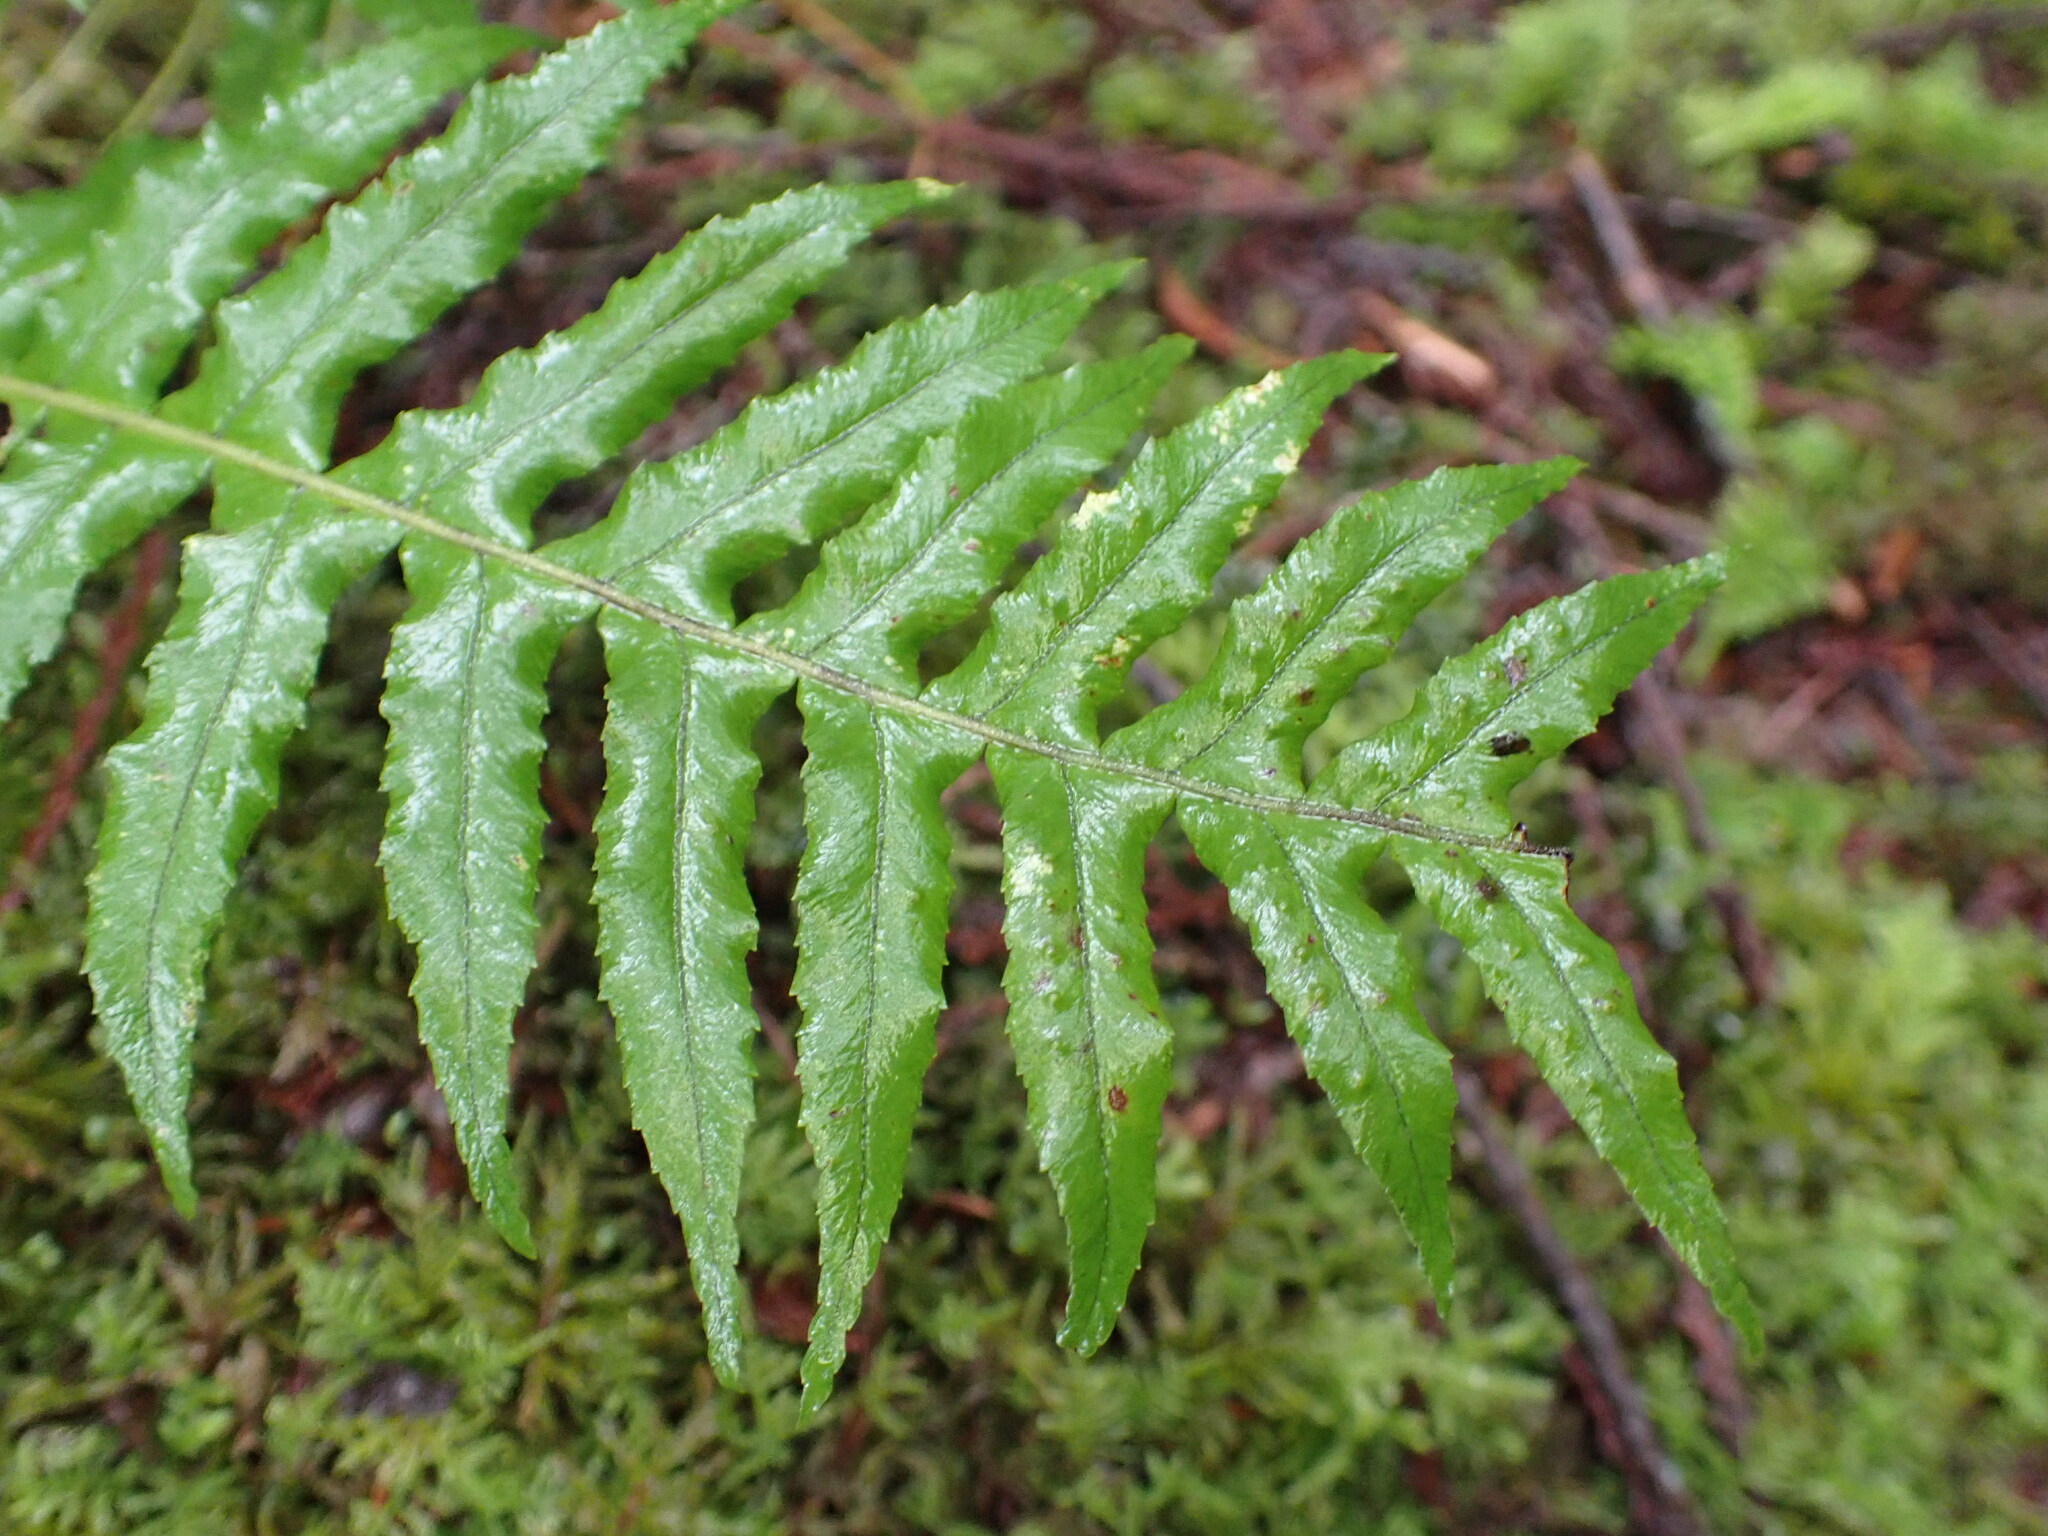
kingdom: Plantae
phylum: Tracheophyta
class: Polypodiopsida
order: Polypodiales
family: Polypodiaceae
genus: Polypodium
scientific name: Polypodium glycyrrhiza
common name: Licorice fern
